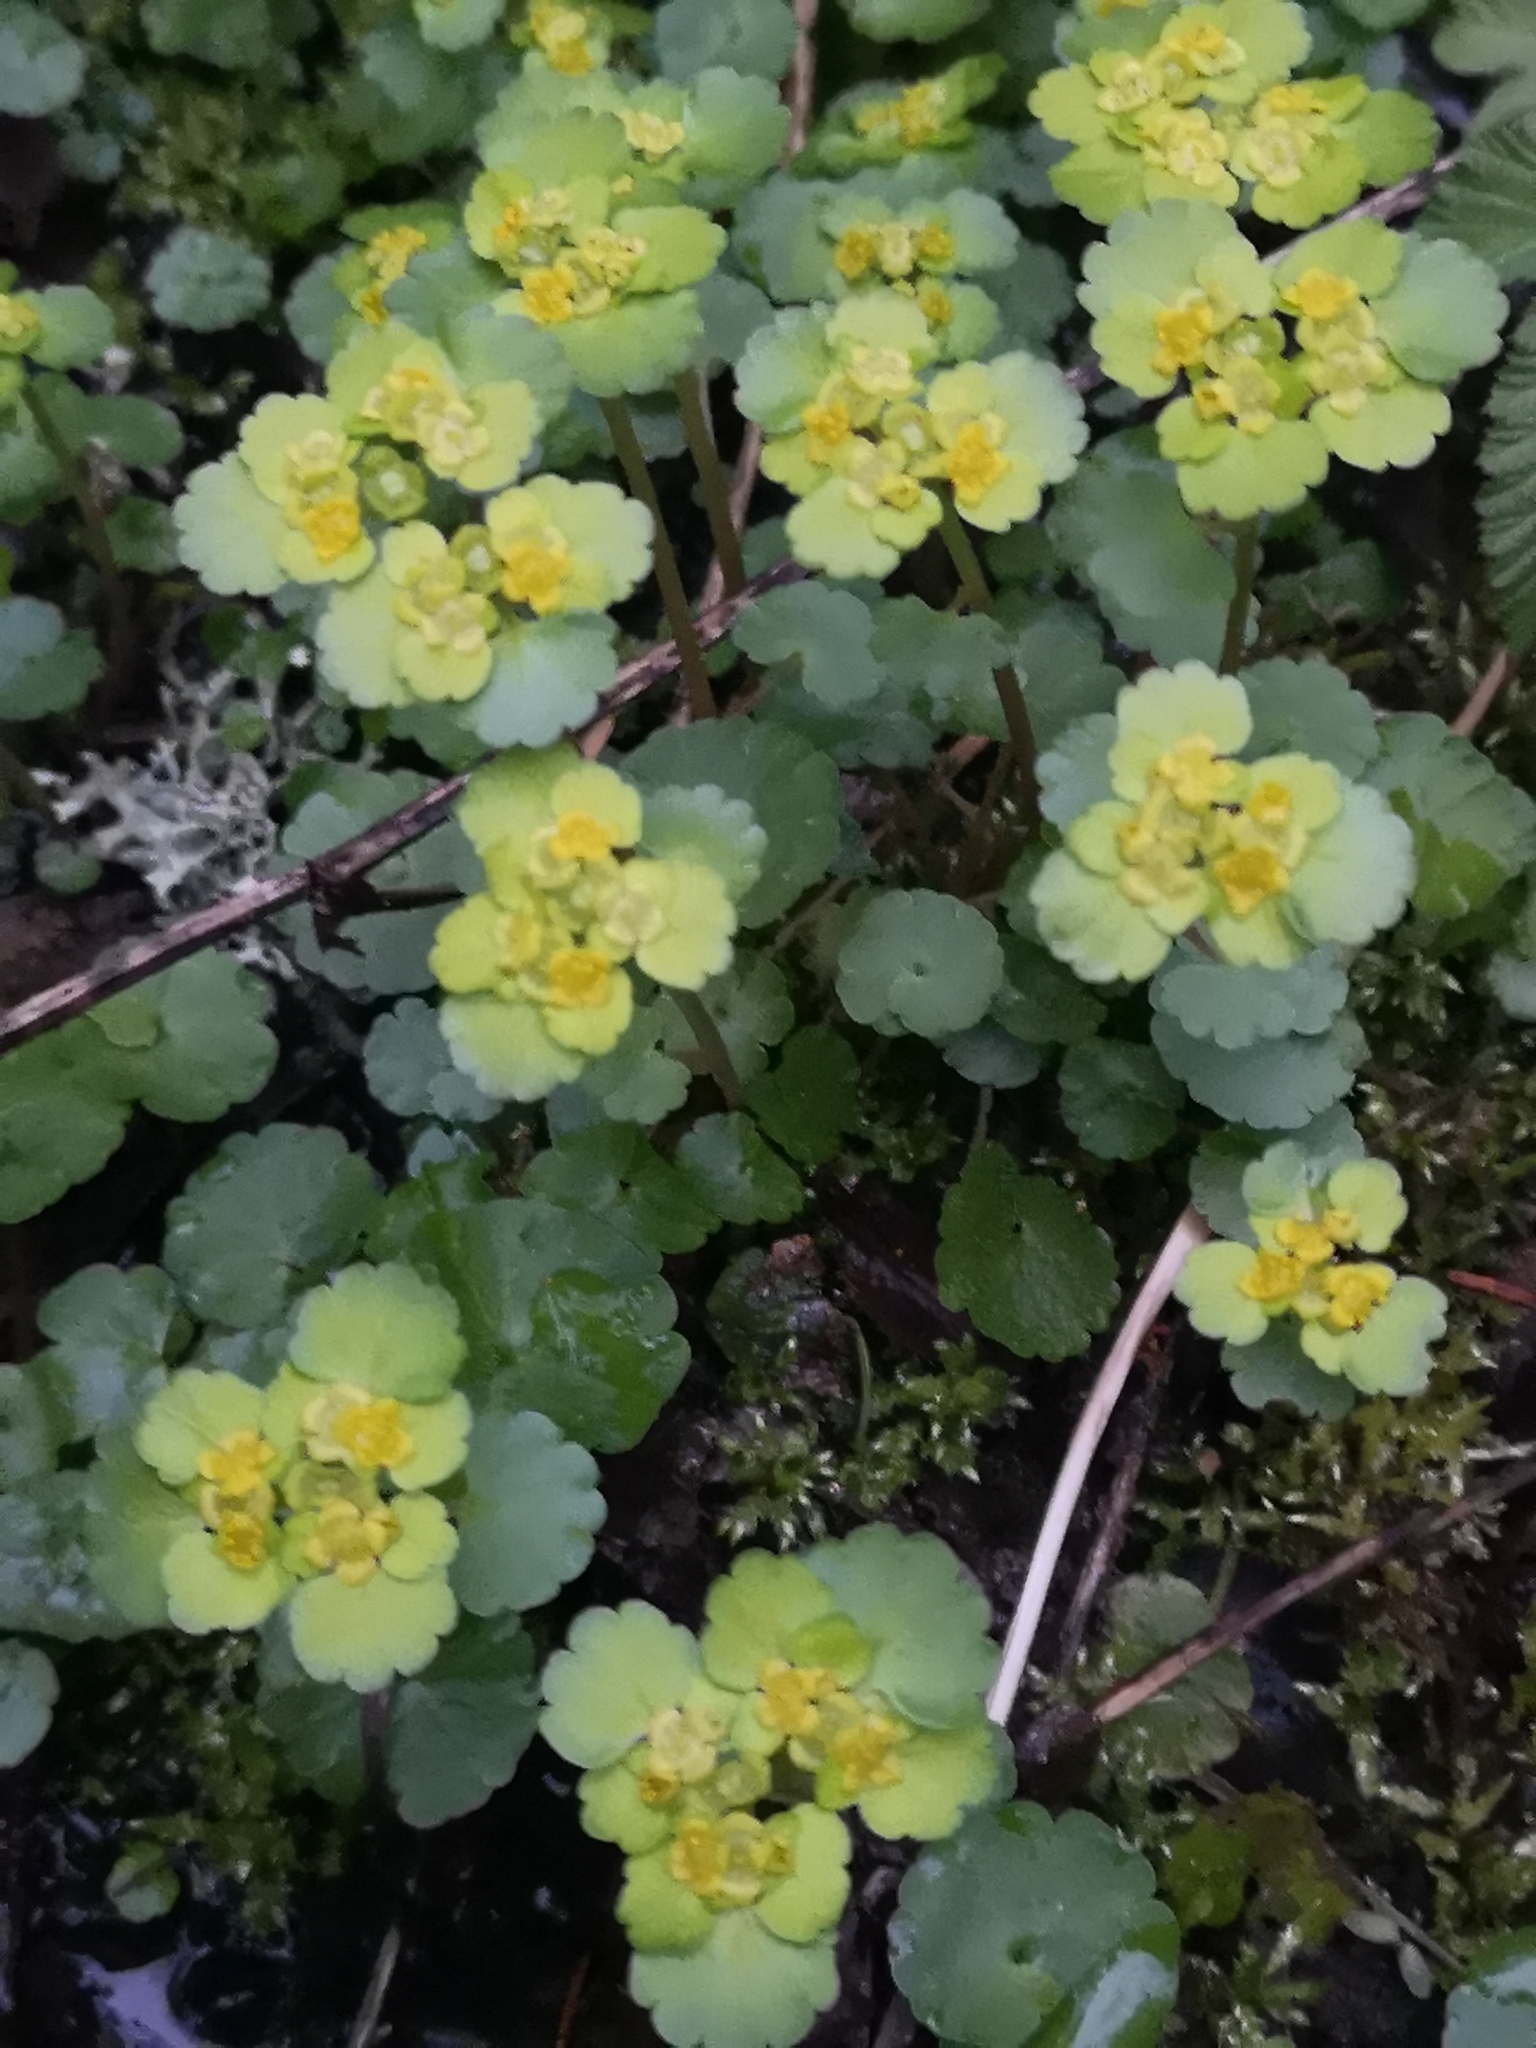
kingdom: Plantae
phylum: Tracheophyta
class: Magnoliopsida
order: Saxifragales
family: Saxifragaceae
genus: Chrysosplenium
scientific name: Chrysosplenium alternifolium
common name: Alternate-leaved golden-saxifrage
